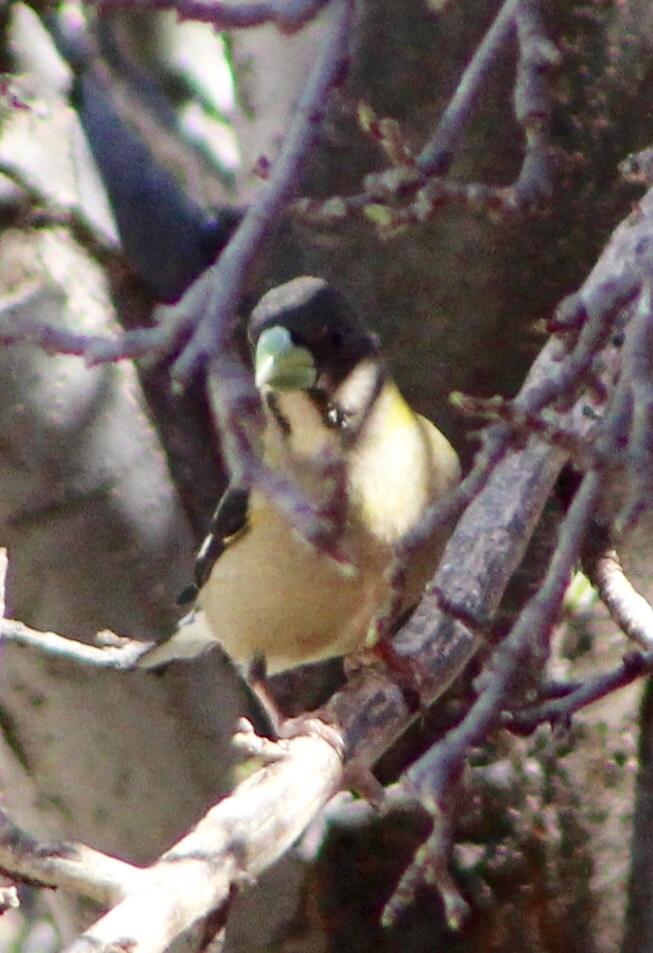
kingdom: Animalia
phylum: Chordata
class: Aves
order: Passeriformes
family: Fringillidae
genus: Hesperiphona
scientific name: Hesperiphona vespertina
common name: Evening grosbeak
